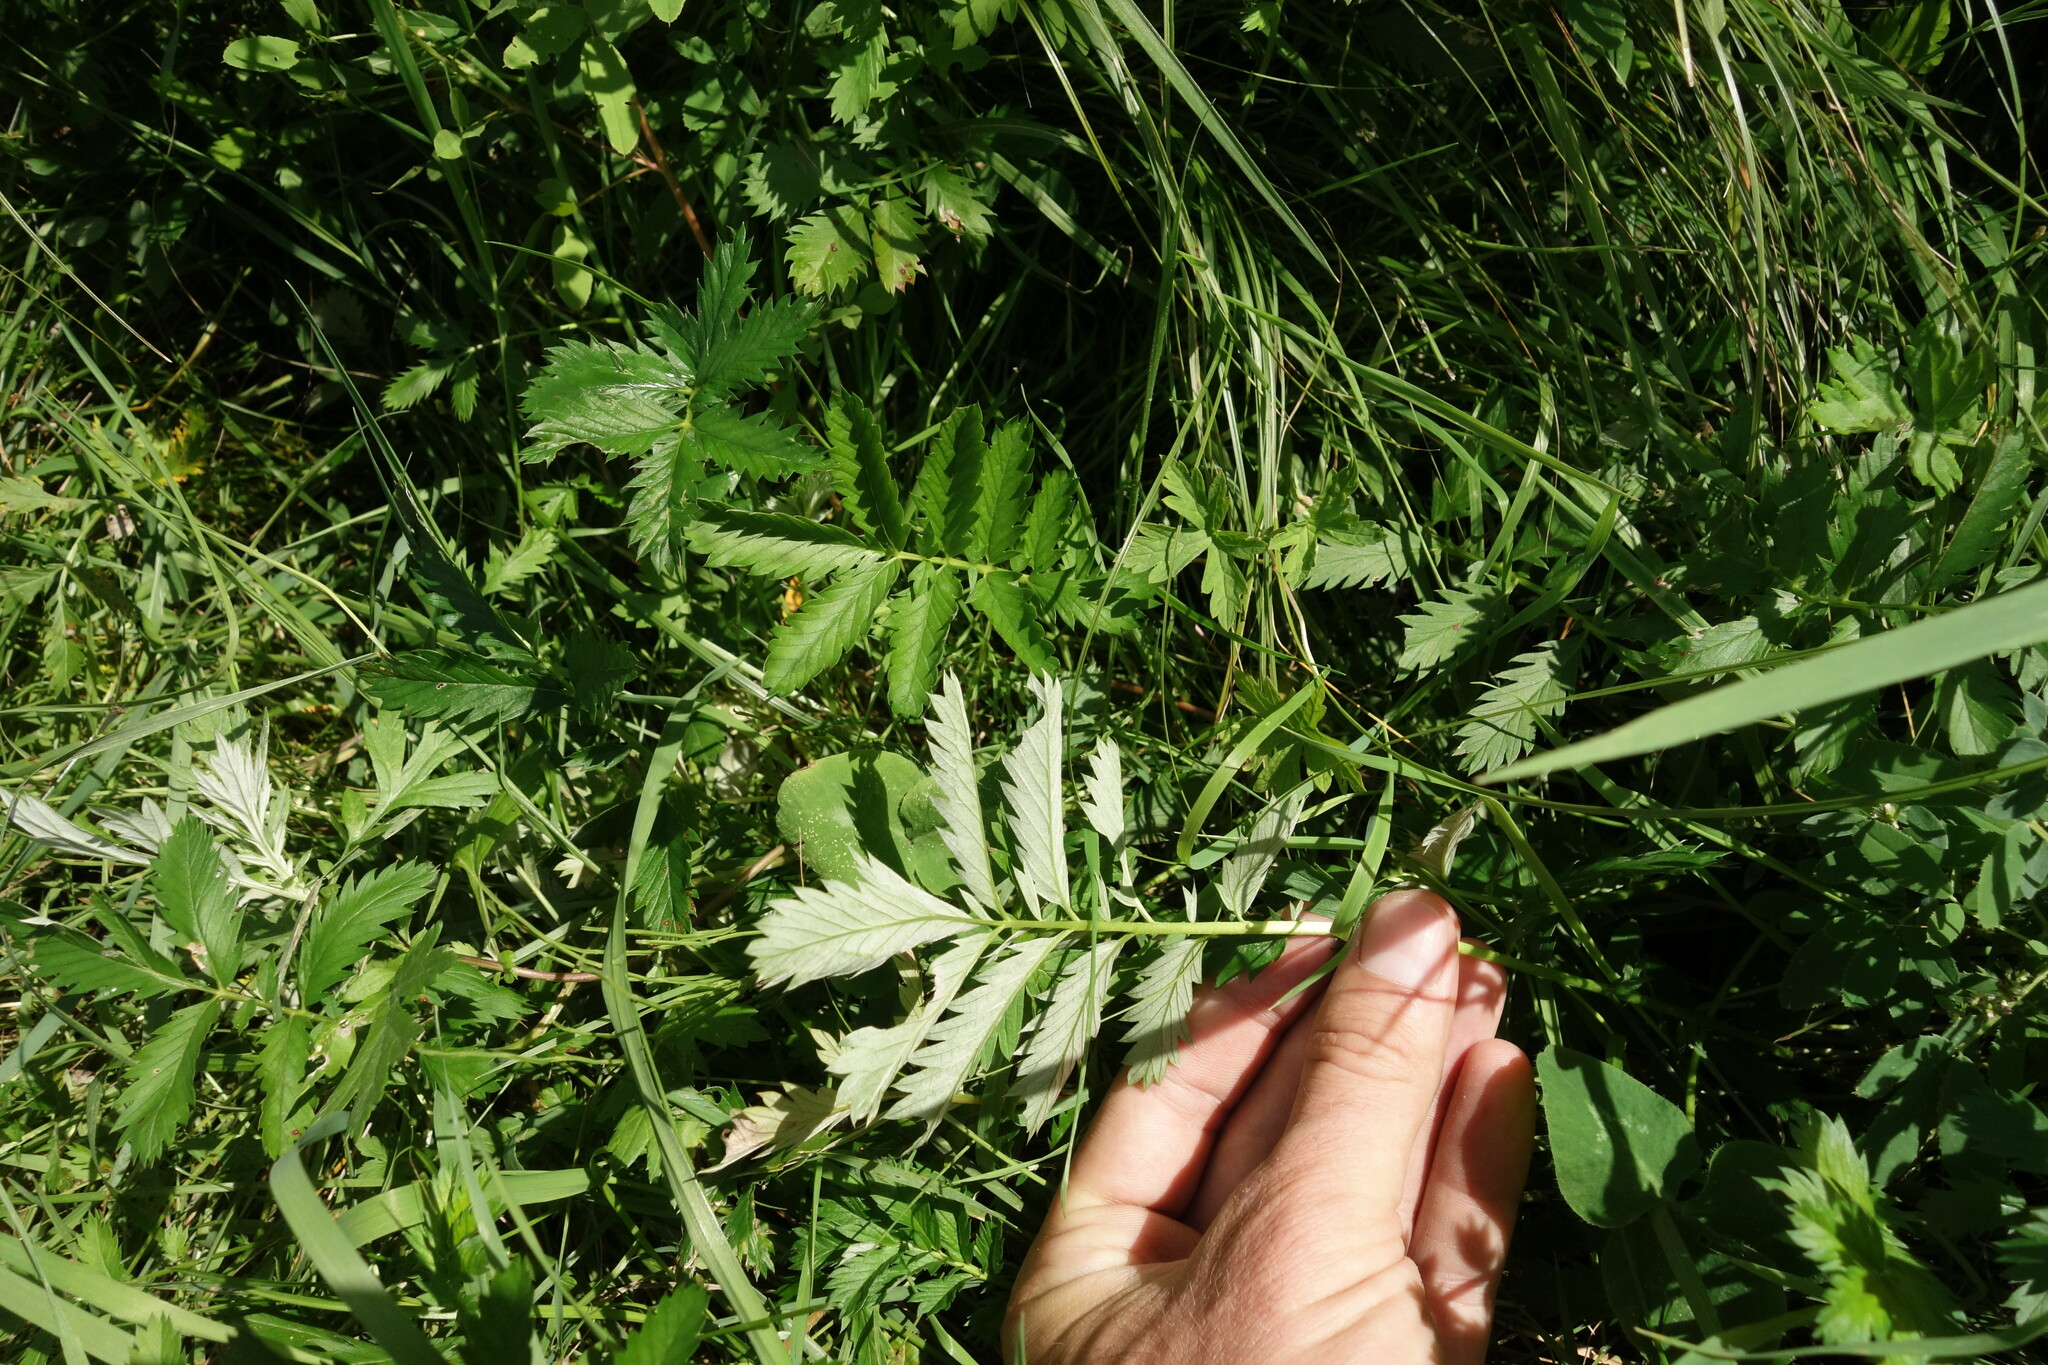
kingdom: Plantae
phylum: Tracheophyta
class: Magnoliopsida
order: Rosales
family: Rosaceae
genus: Argentina
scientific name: Argentina anserina
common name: Common silverweed
